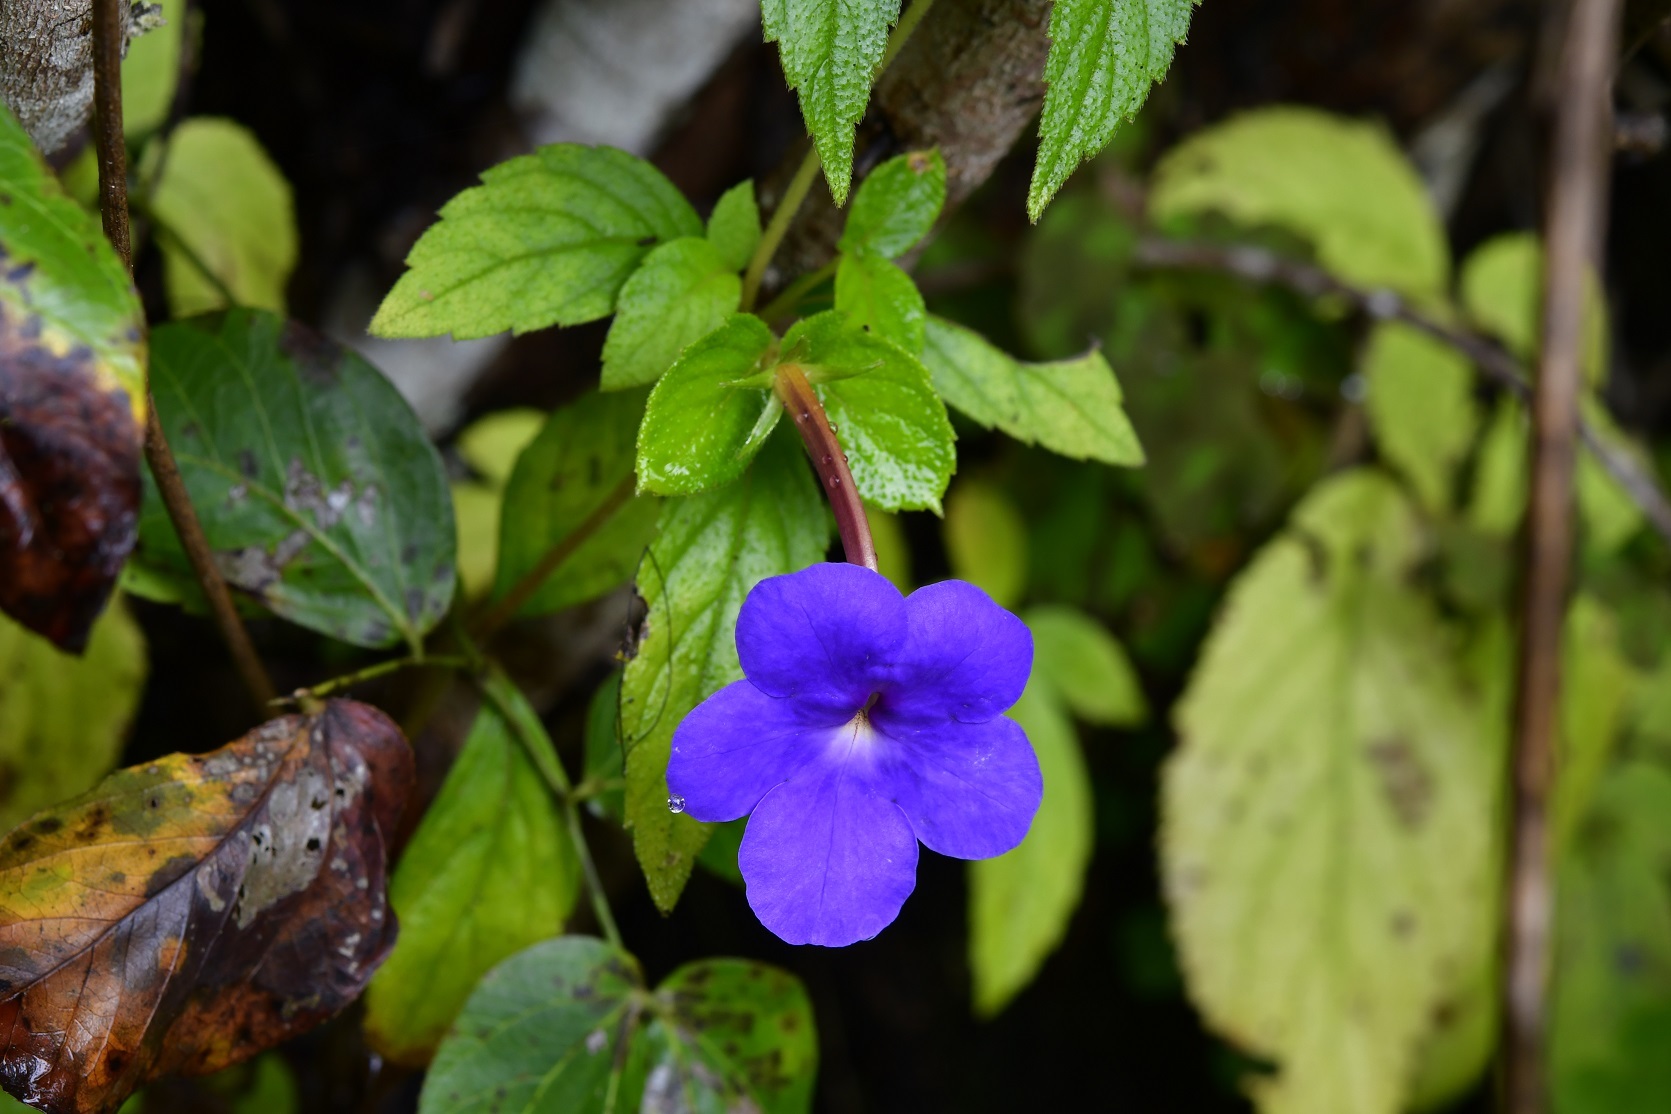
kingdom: Plantae
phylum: Tracheophyta
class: Magnoliopsida
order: Lamiales
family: Gesneriaceae
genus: Achimenes
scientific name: Achimenes longiflora
